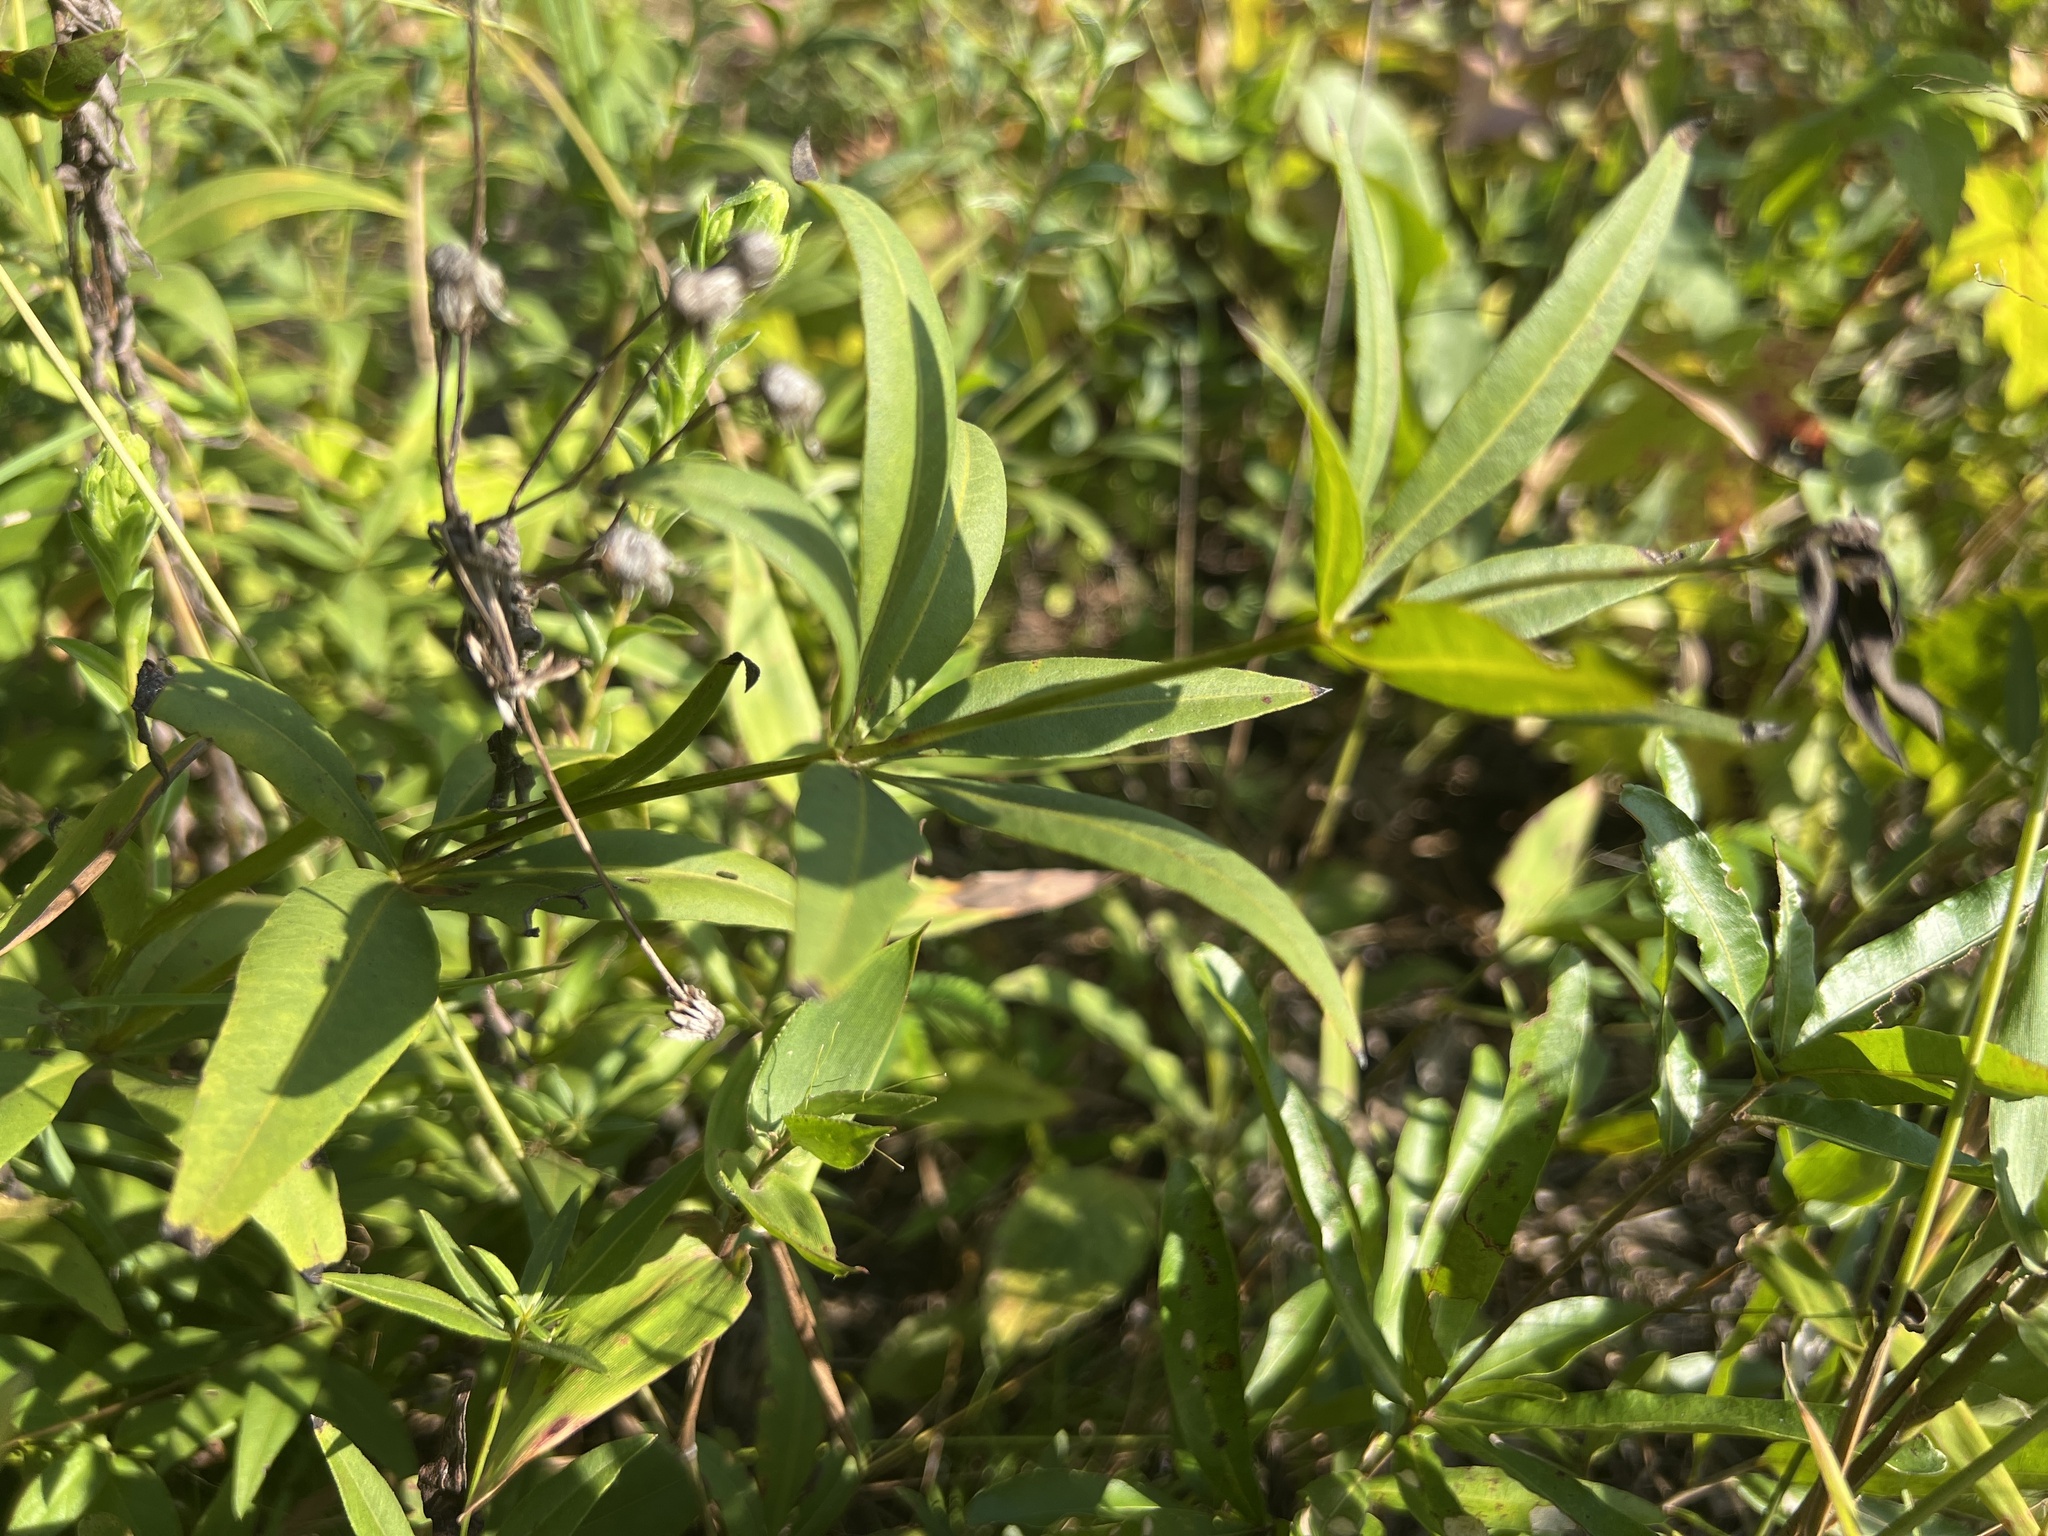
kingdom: Plantae
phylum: Tracheophyta
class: Magnoliopsida
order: Asterales
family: Asteraceae
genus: Coreopsis
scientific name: Coreopsis major
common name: Forest tickseed
